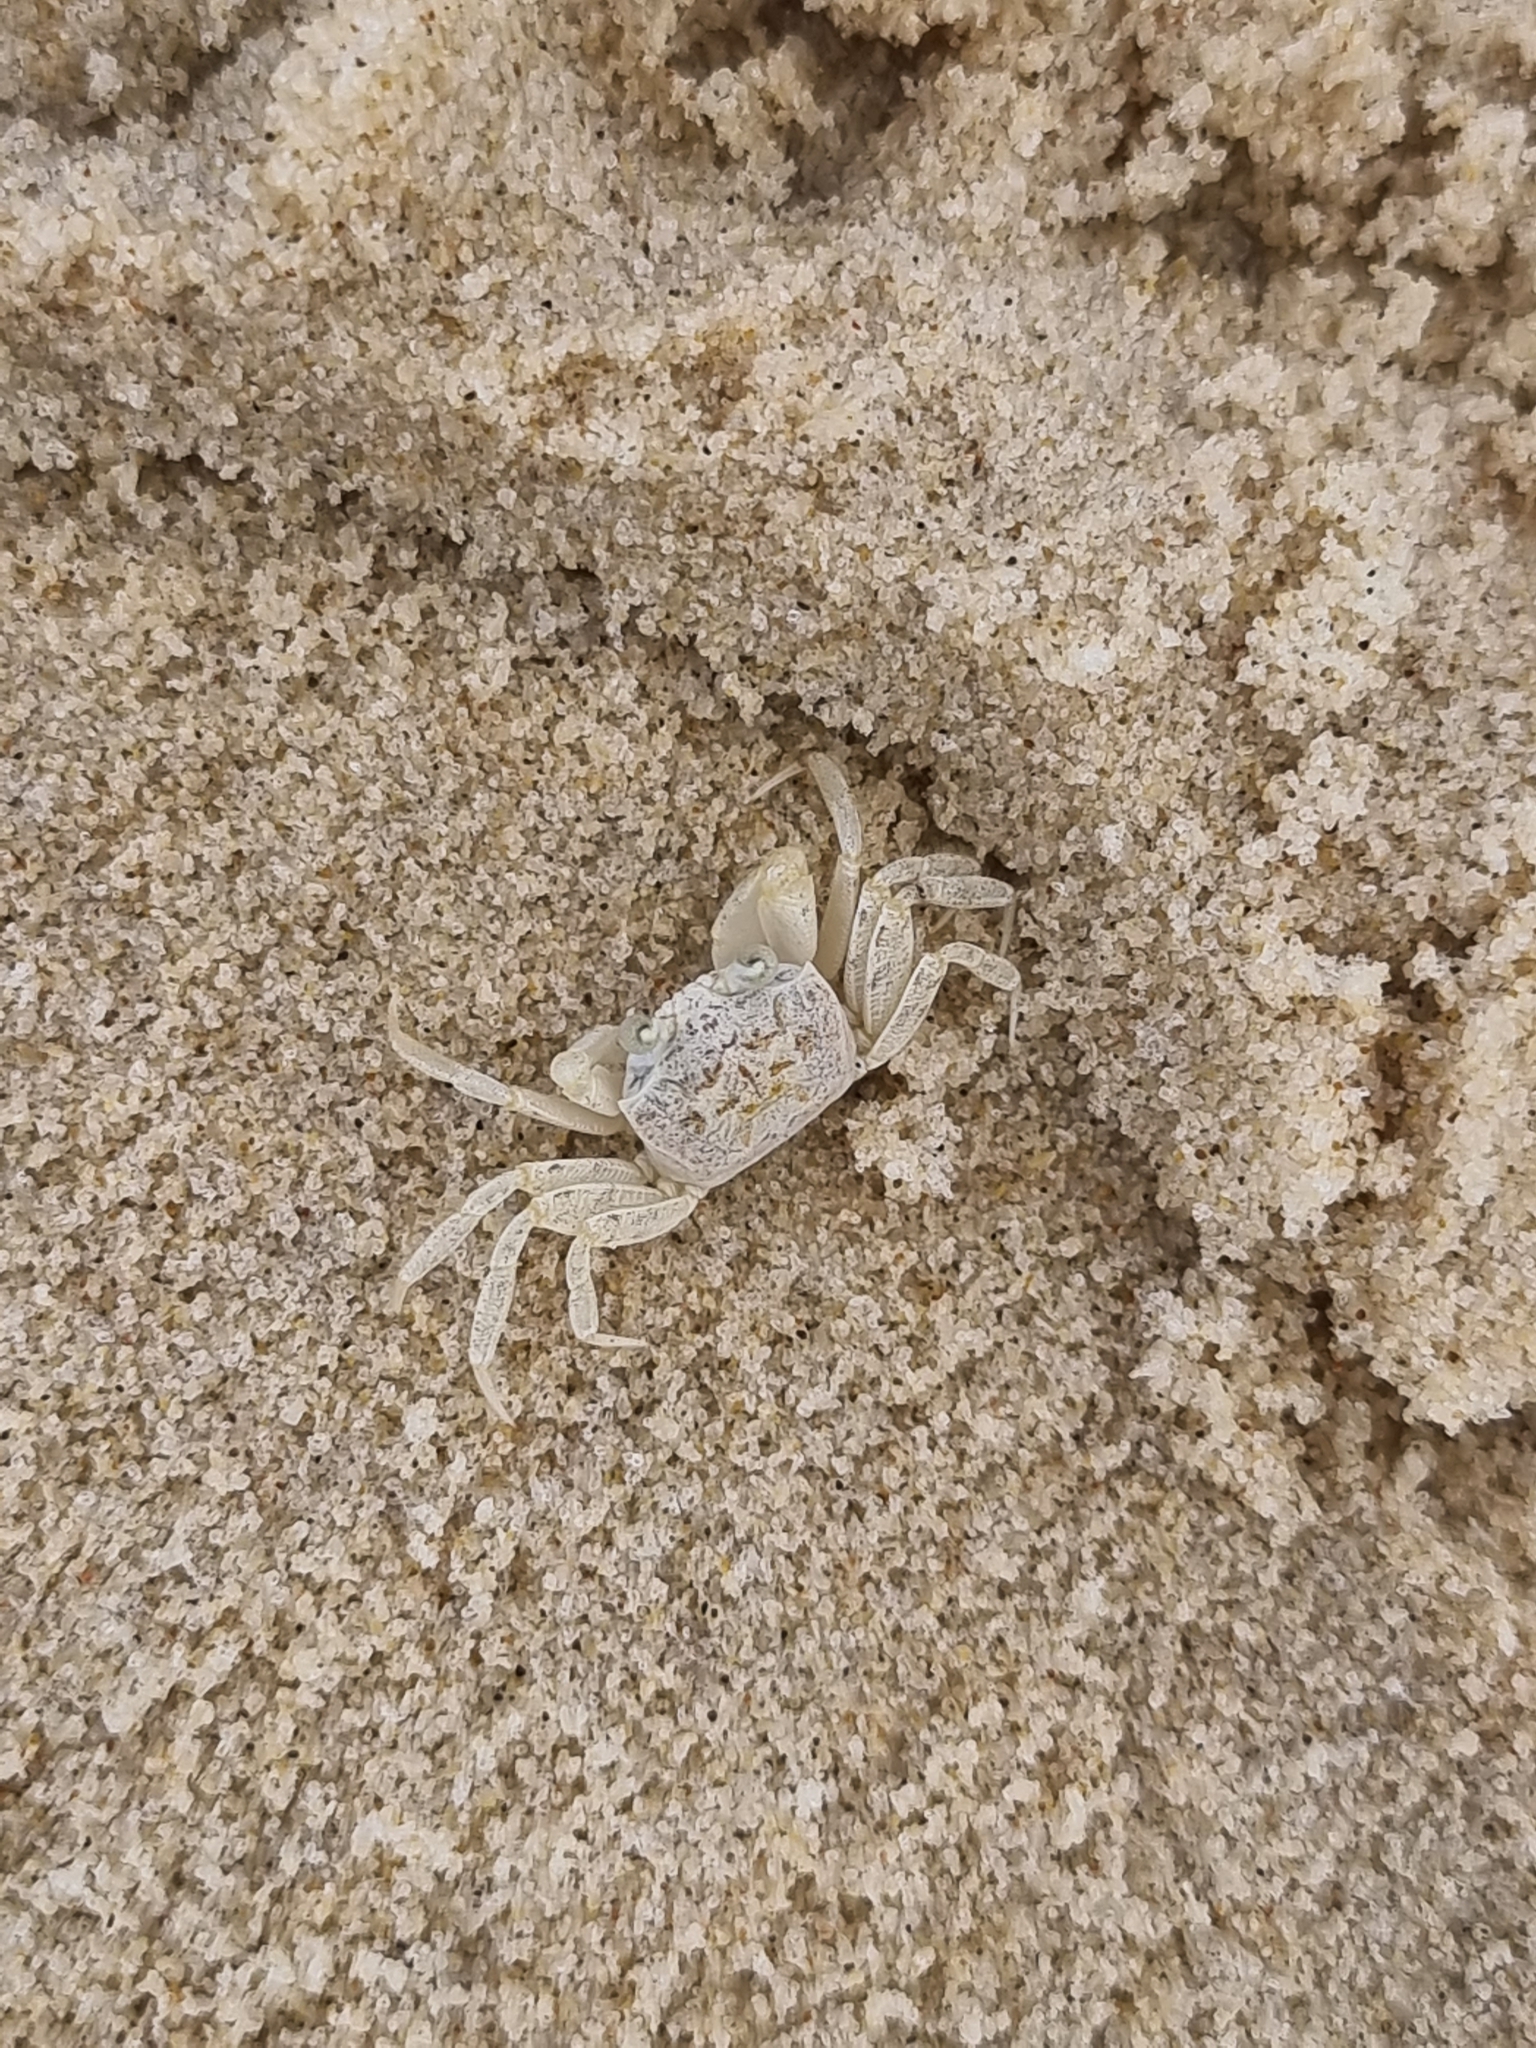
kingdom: Animalia
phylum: Arthropoda
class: Malacostraca
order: Decapoda
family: Ocypodidae
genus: Ocypode
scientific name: Ocypode cordimana
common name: Smooth-eyed ghost crab
